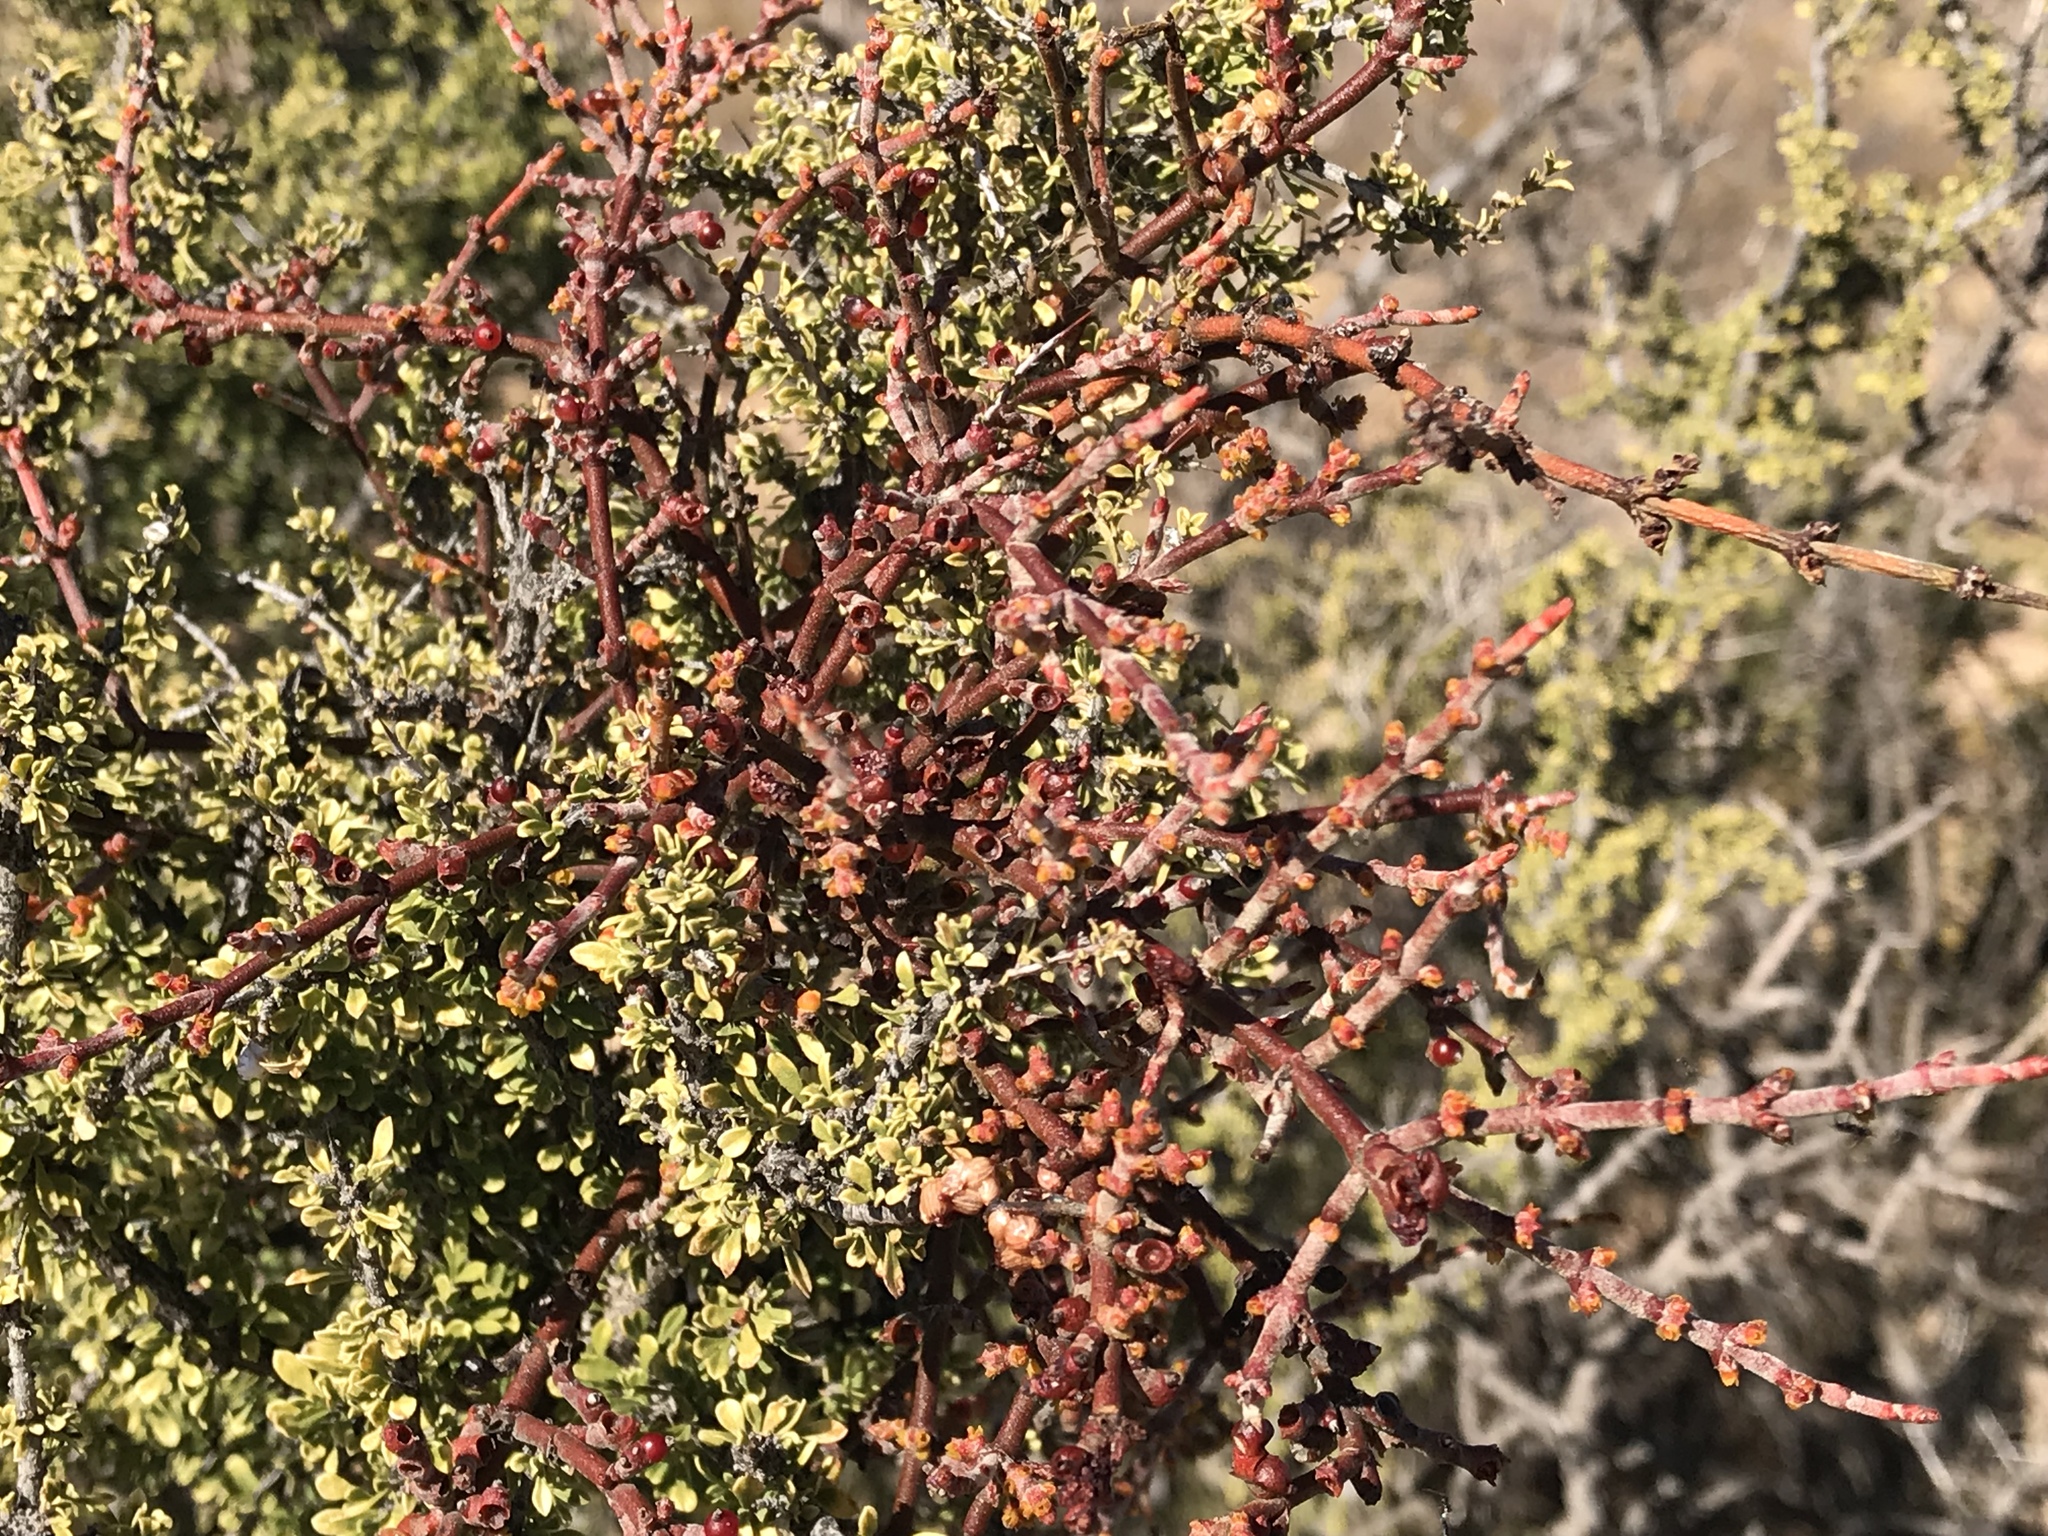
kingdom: Plantae
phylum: Tracheophyta
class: Magnoliopsida
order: Santalales
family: Viscaceae
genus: Phoradendron
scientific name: Phoradendron californicum
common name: Acacia mistletoe
